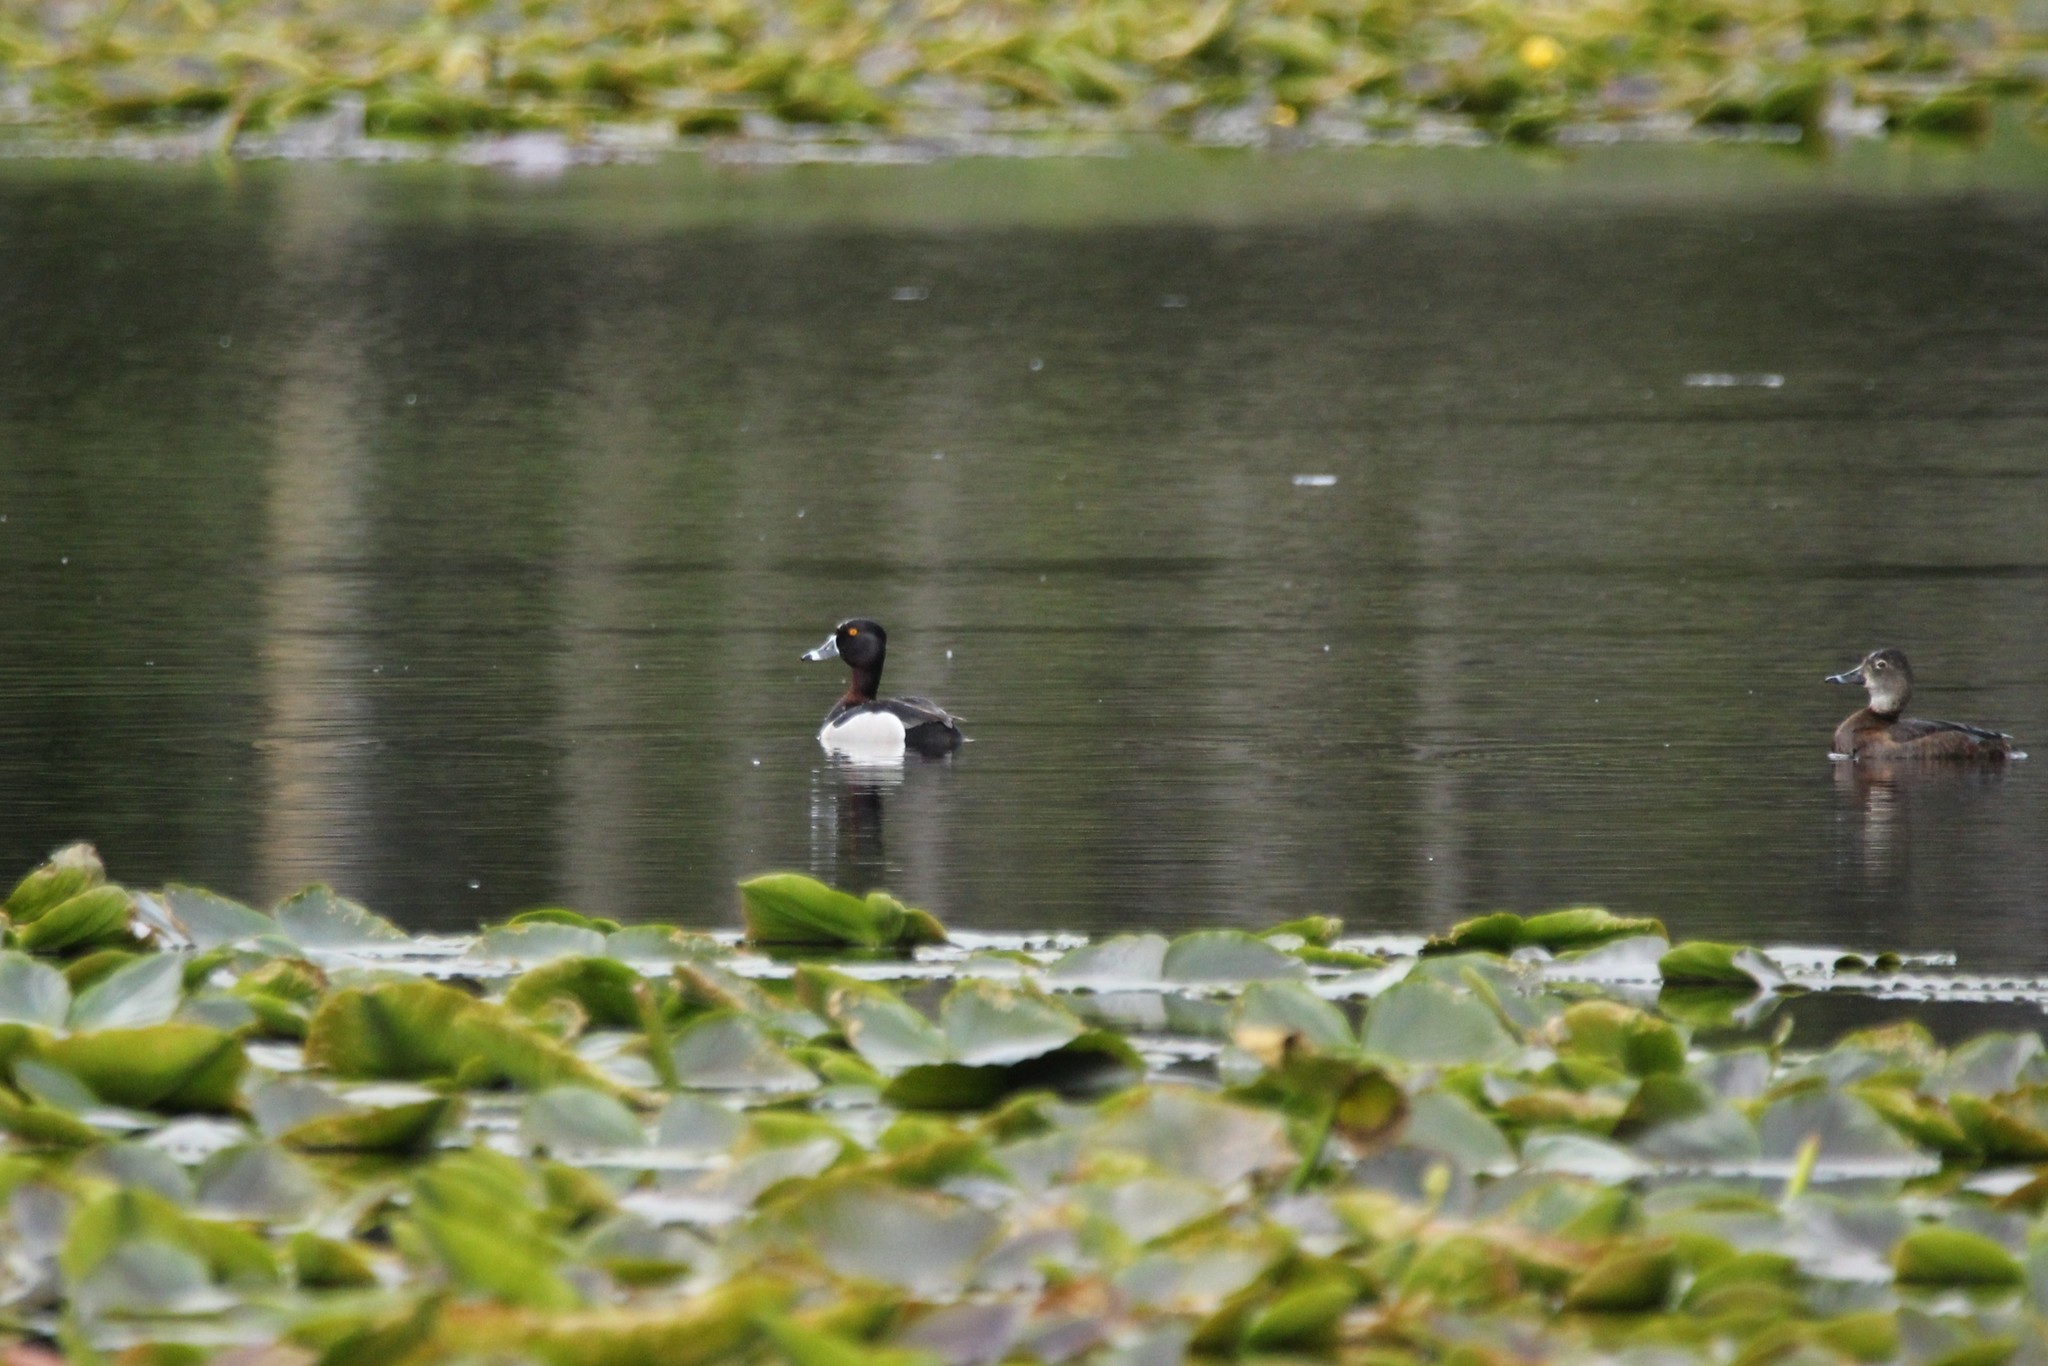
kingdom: Animalia
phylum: Chordata
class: Aves
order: Anseriformes
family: Anatidae
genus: Aythya
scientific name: Aythya collaris
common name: Ring-necked duck
